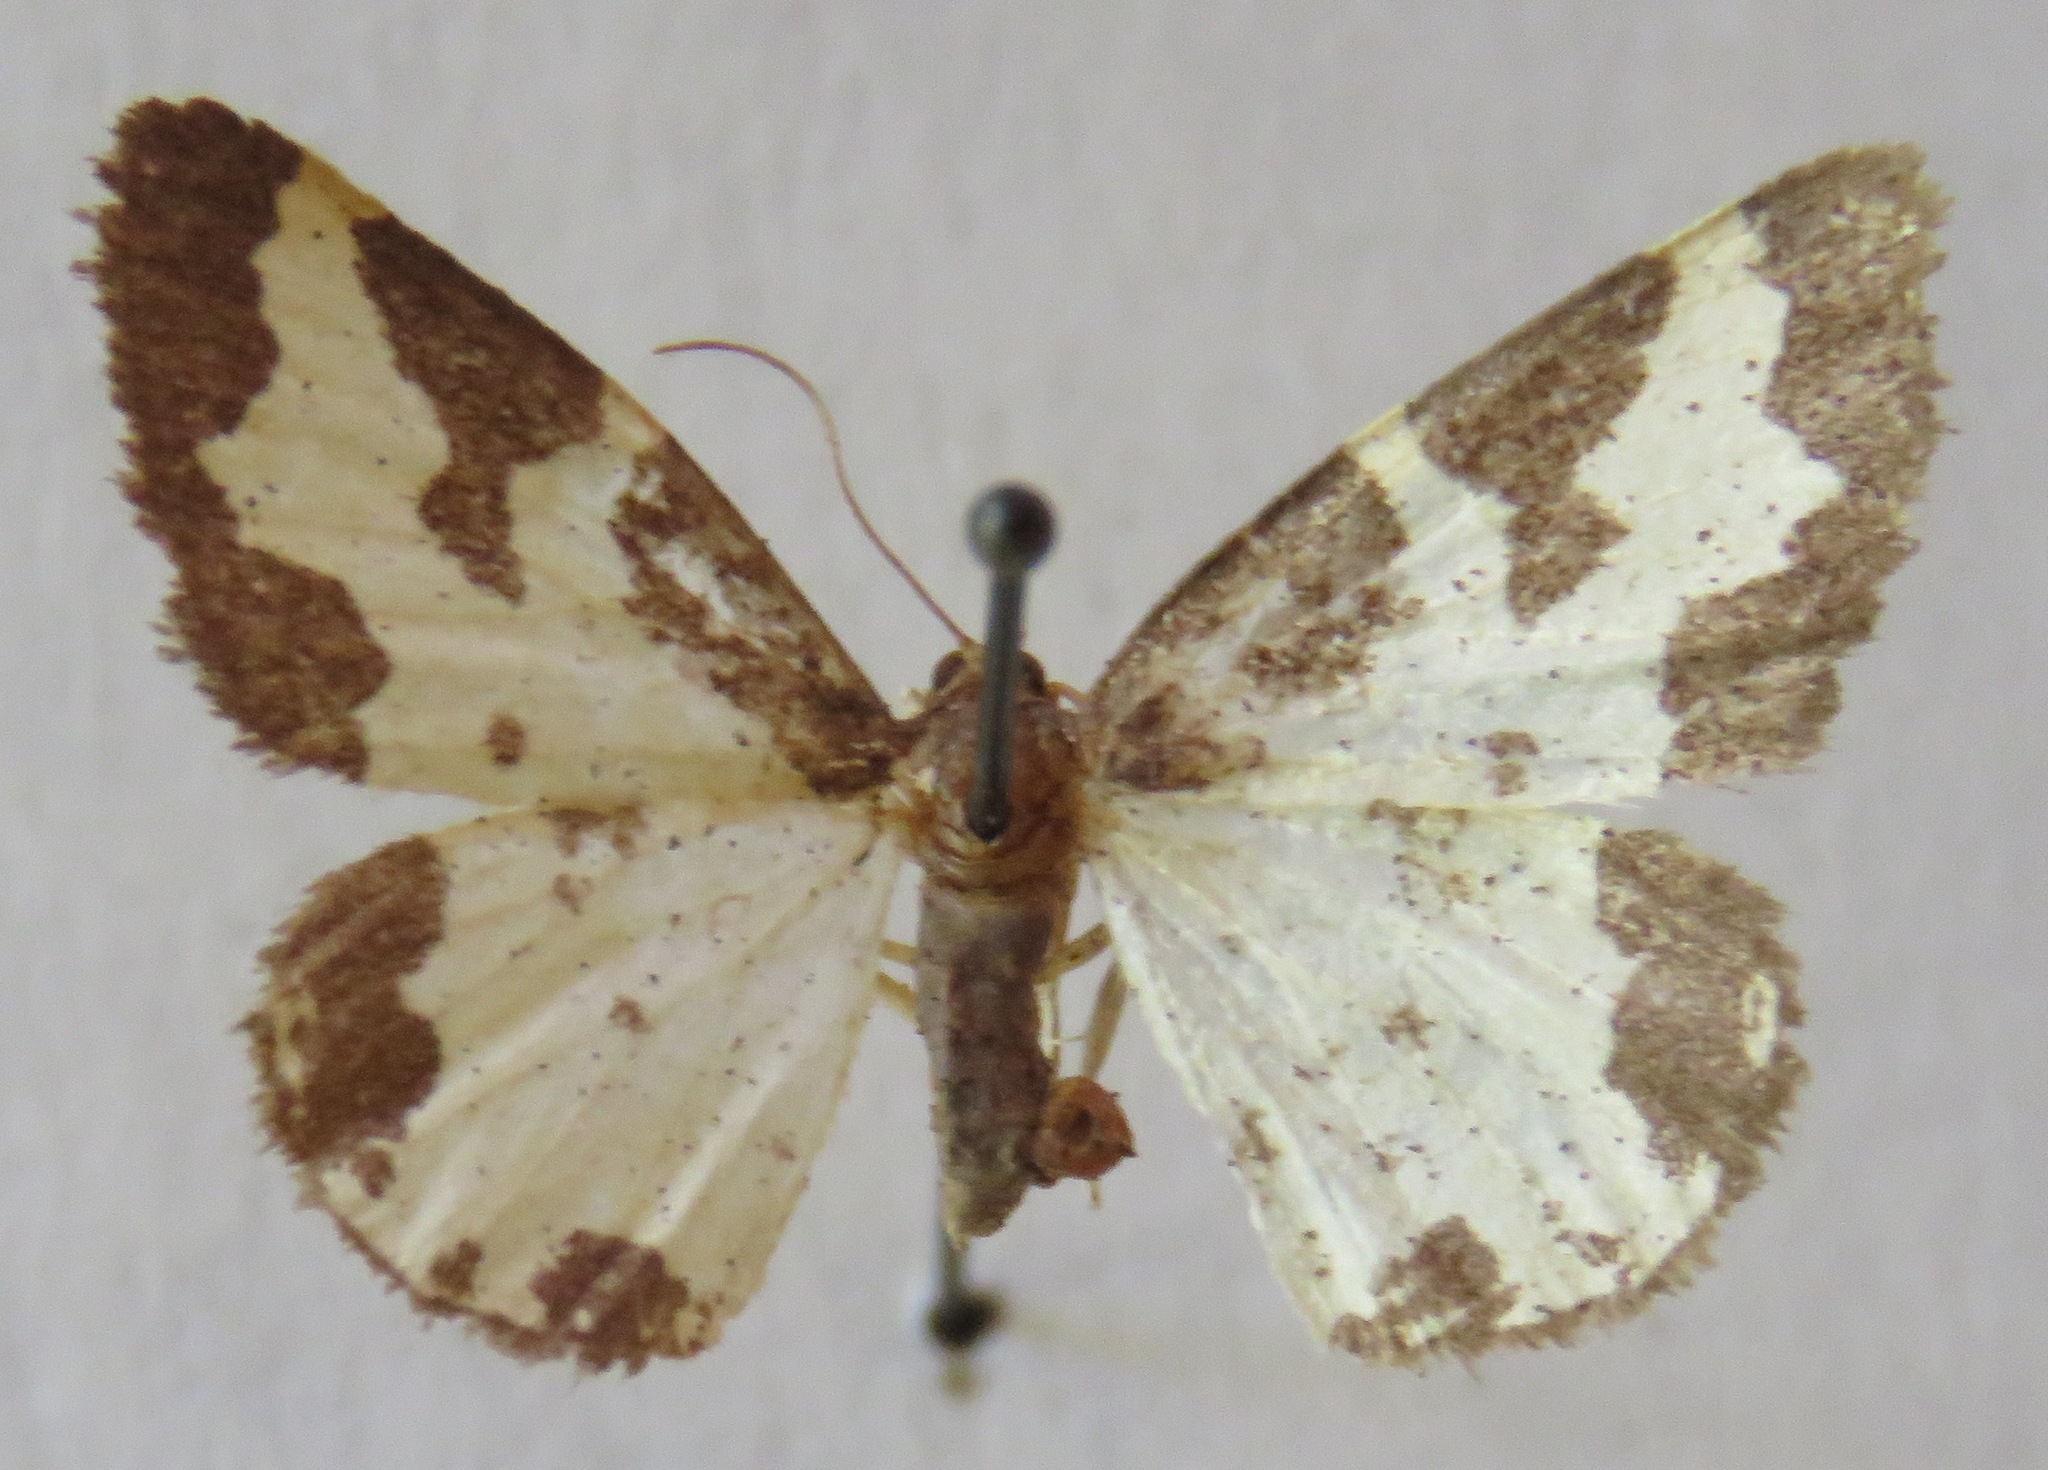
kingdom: Animalia
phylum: Arthropoda
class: Insecta
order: Lepidoptera
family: Geometridae
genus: Lomaspilis
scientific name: Lomaspilis marginata
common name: Clouded border
